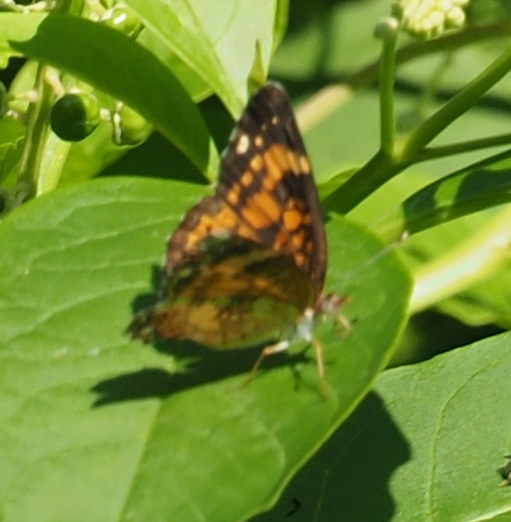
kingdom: Animalia
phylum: Arthropoda
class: Insecta
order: Lepidoptera
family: Nymphalidae
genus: Chlosyne
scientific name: Chlosyne nycteis
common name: Silvery checkerspot
